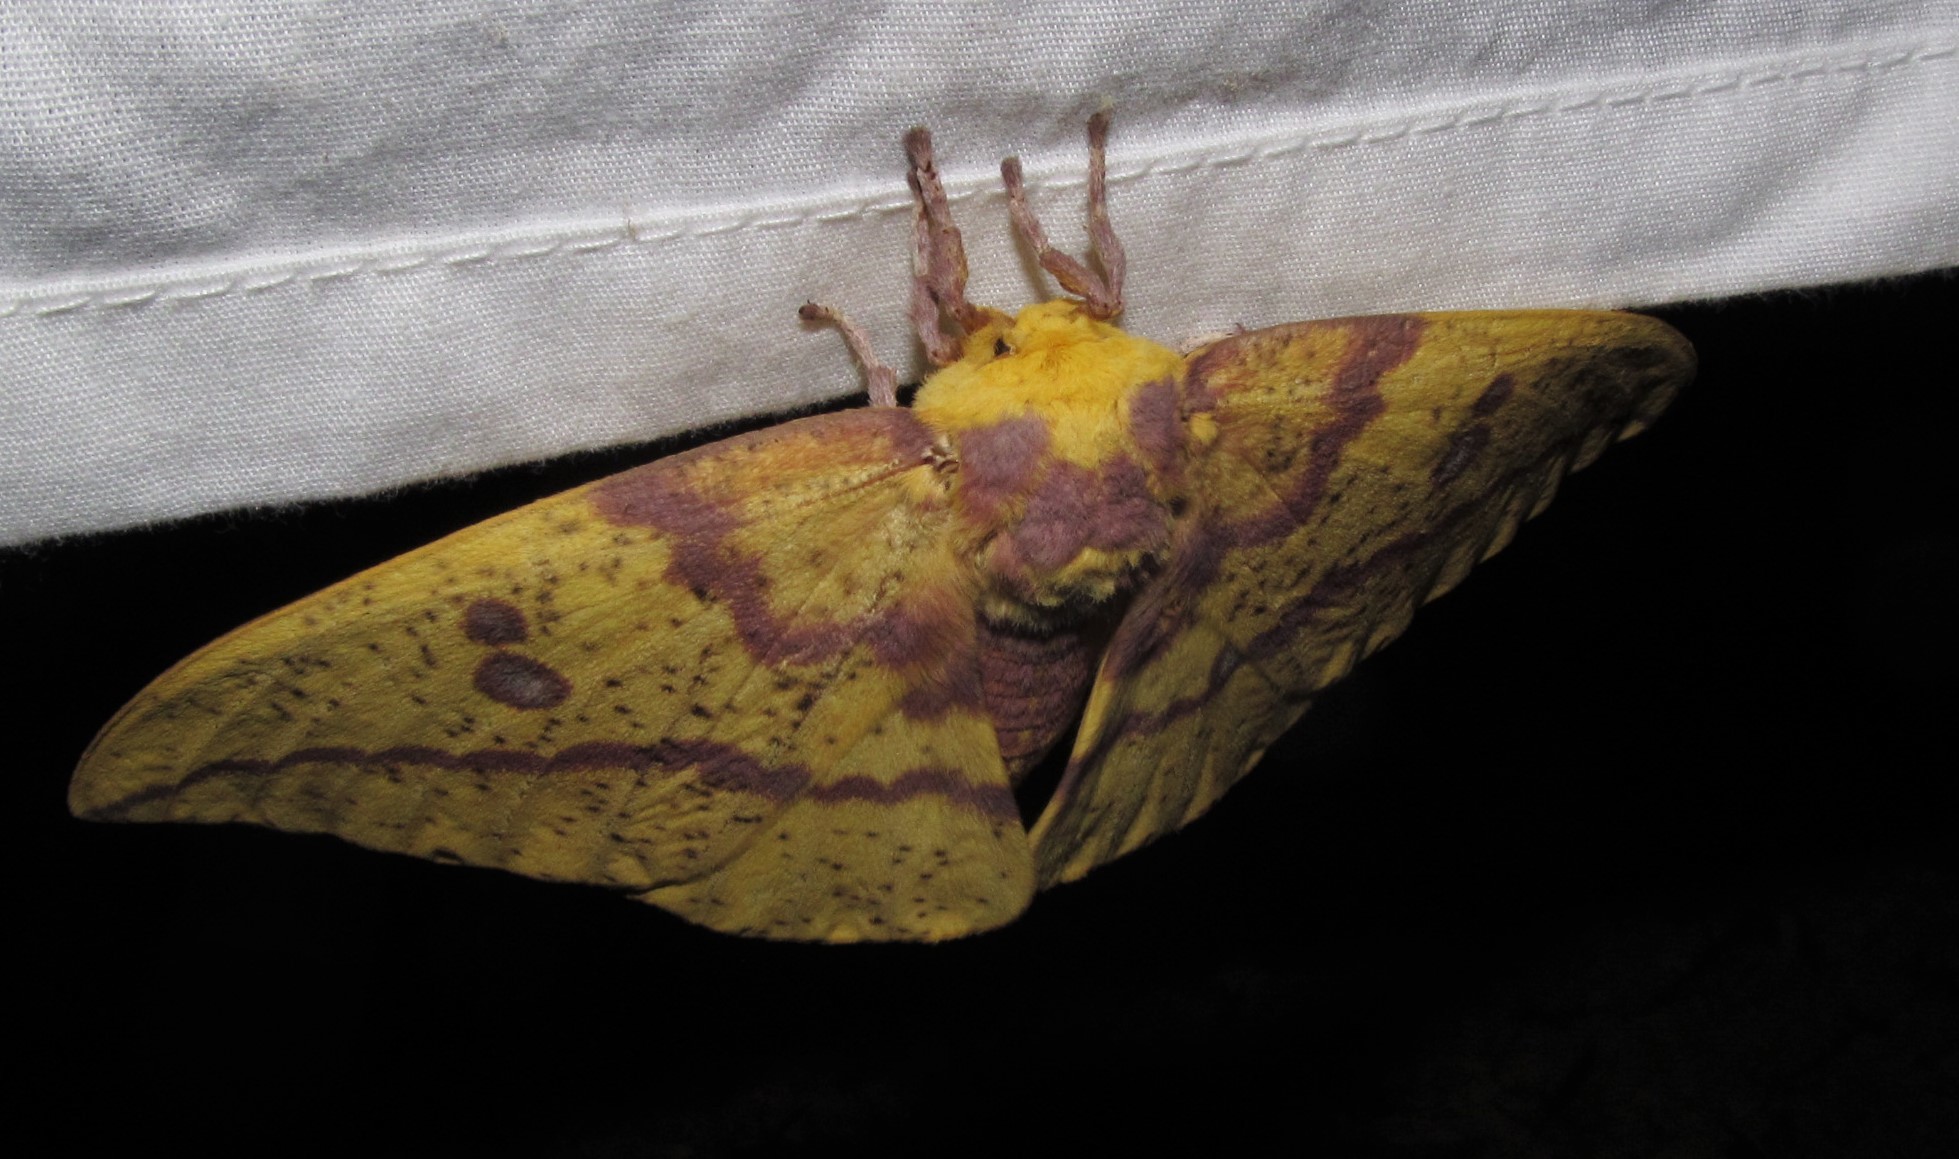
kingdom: Animalia
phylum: Arthropoda
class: Insecta
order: Lepidoptera
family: Saturniidae
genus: Eacles
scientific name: Eacles imperialis
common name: Imperial moth
